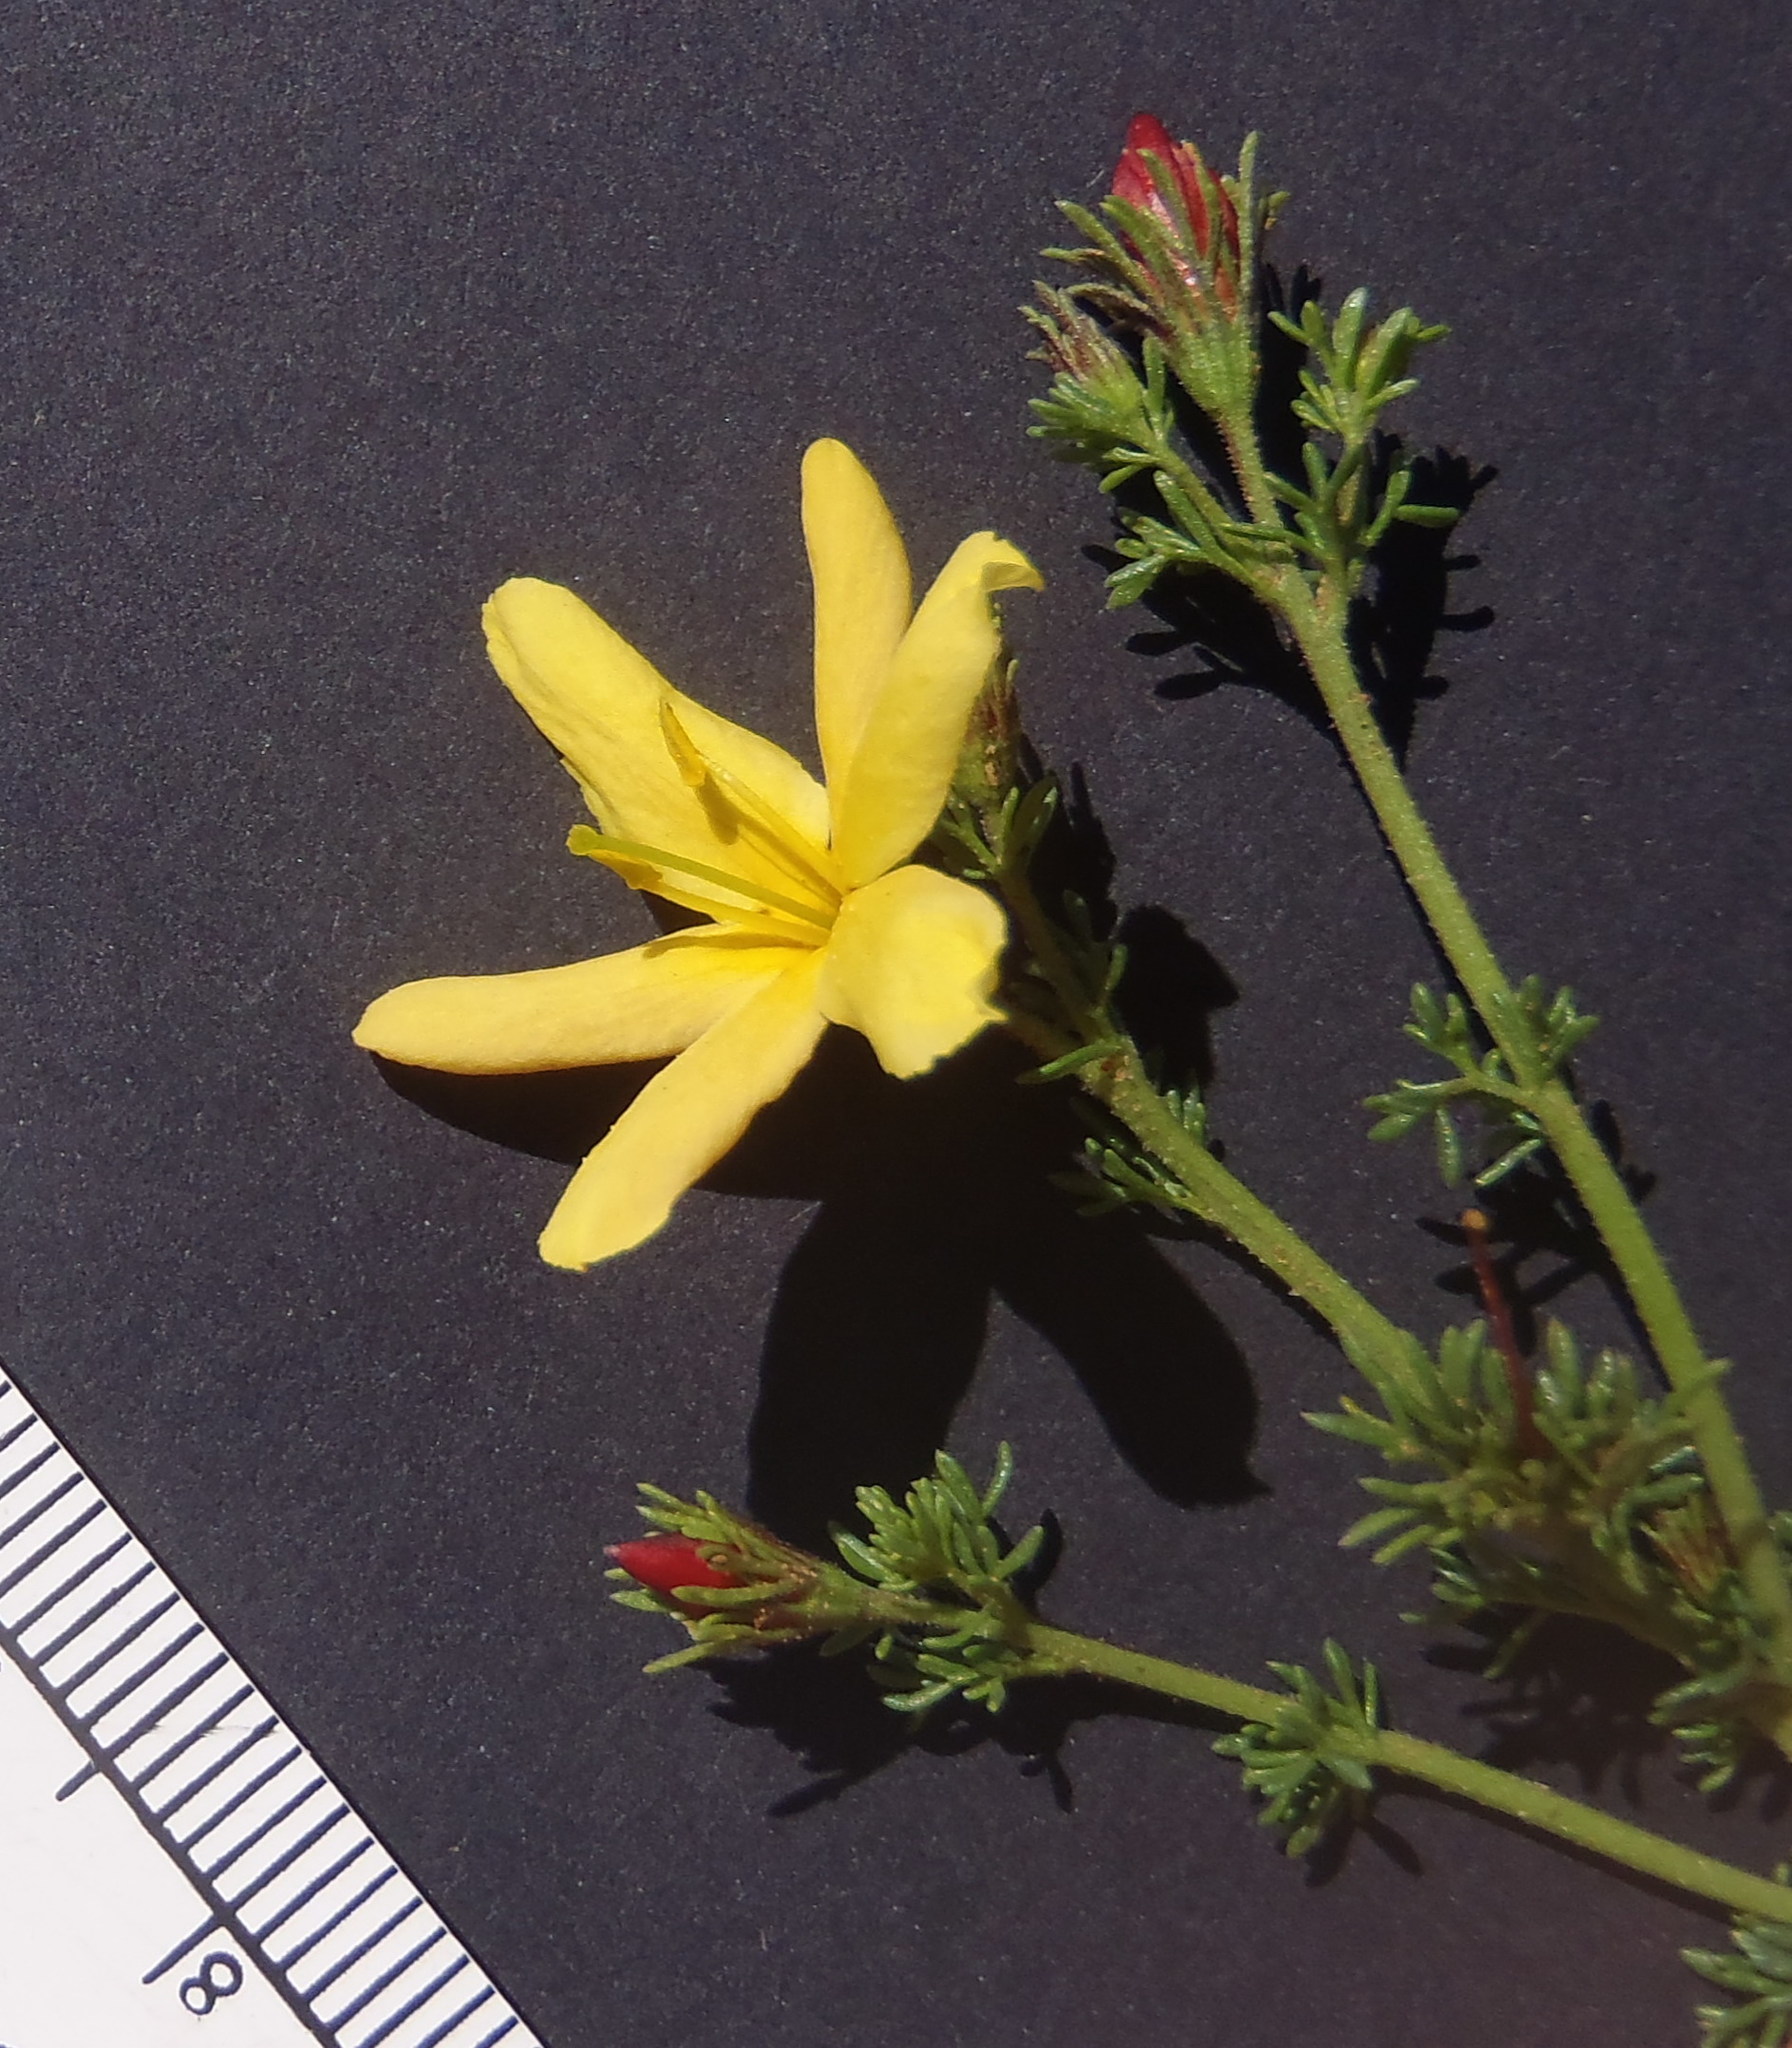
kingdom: Plantae
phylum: Tracheophyta
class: Magnoliopsida
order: Lamiales
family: Oleaceae
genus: Menodora
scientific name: Menodora africana
